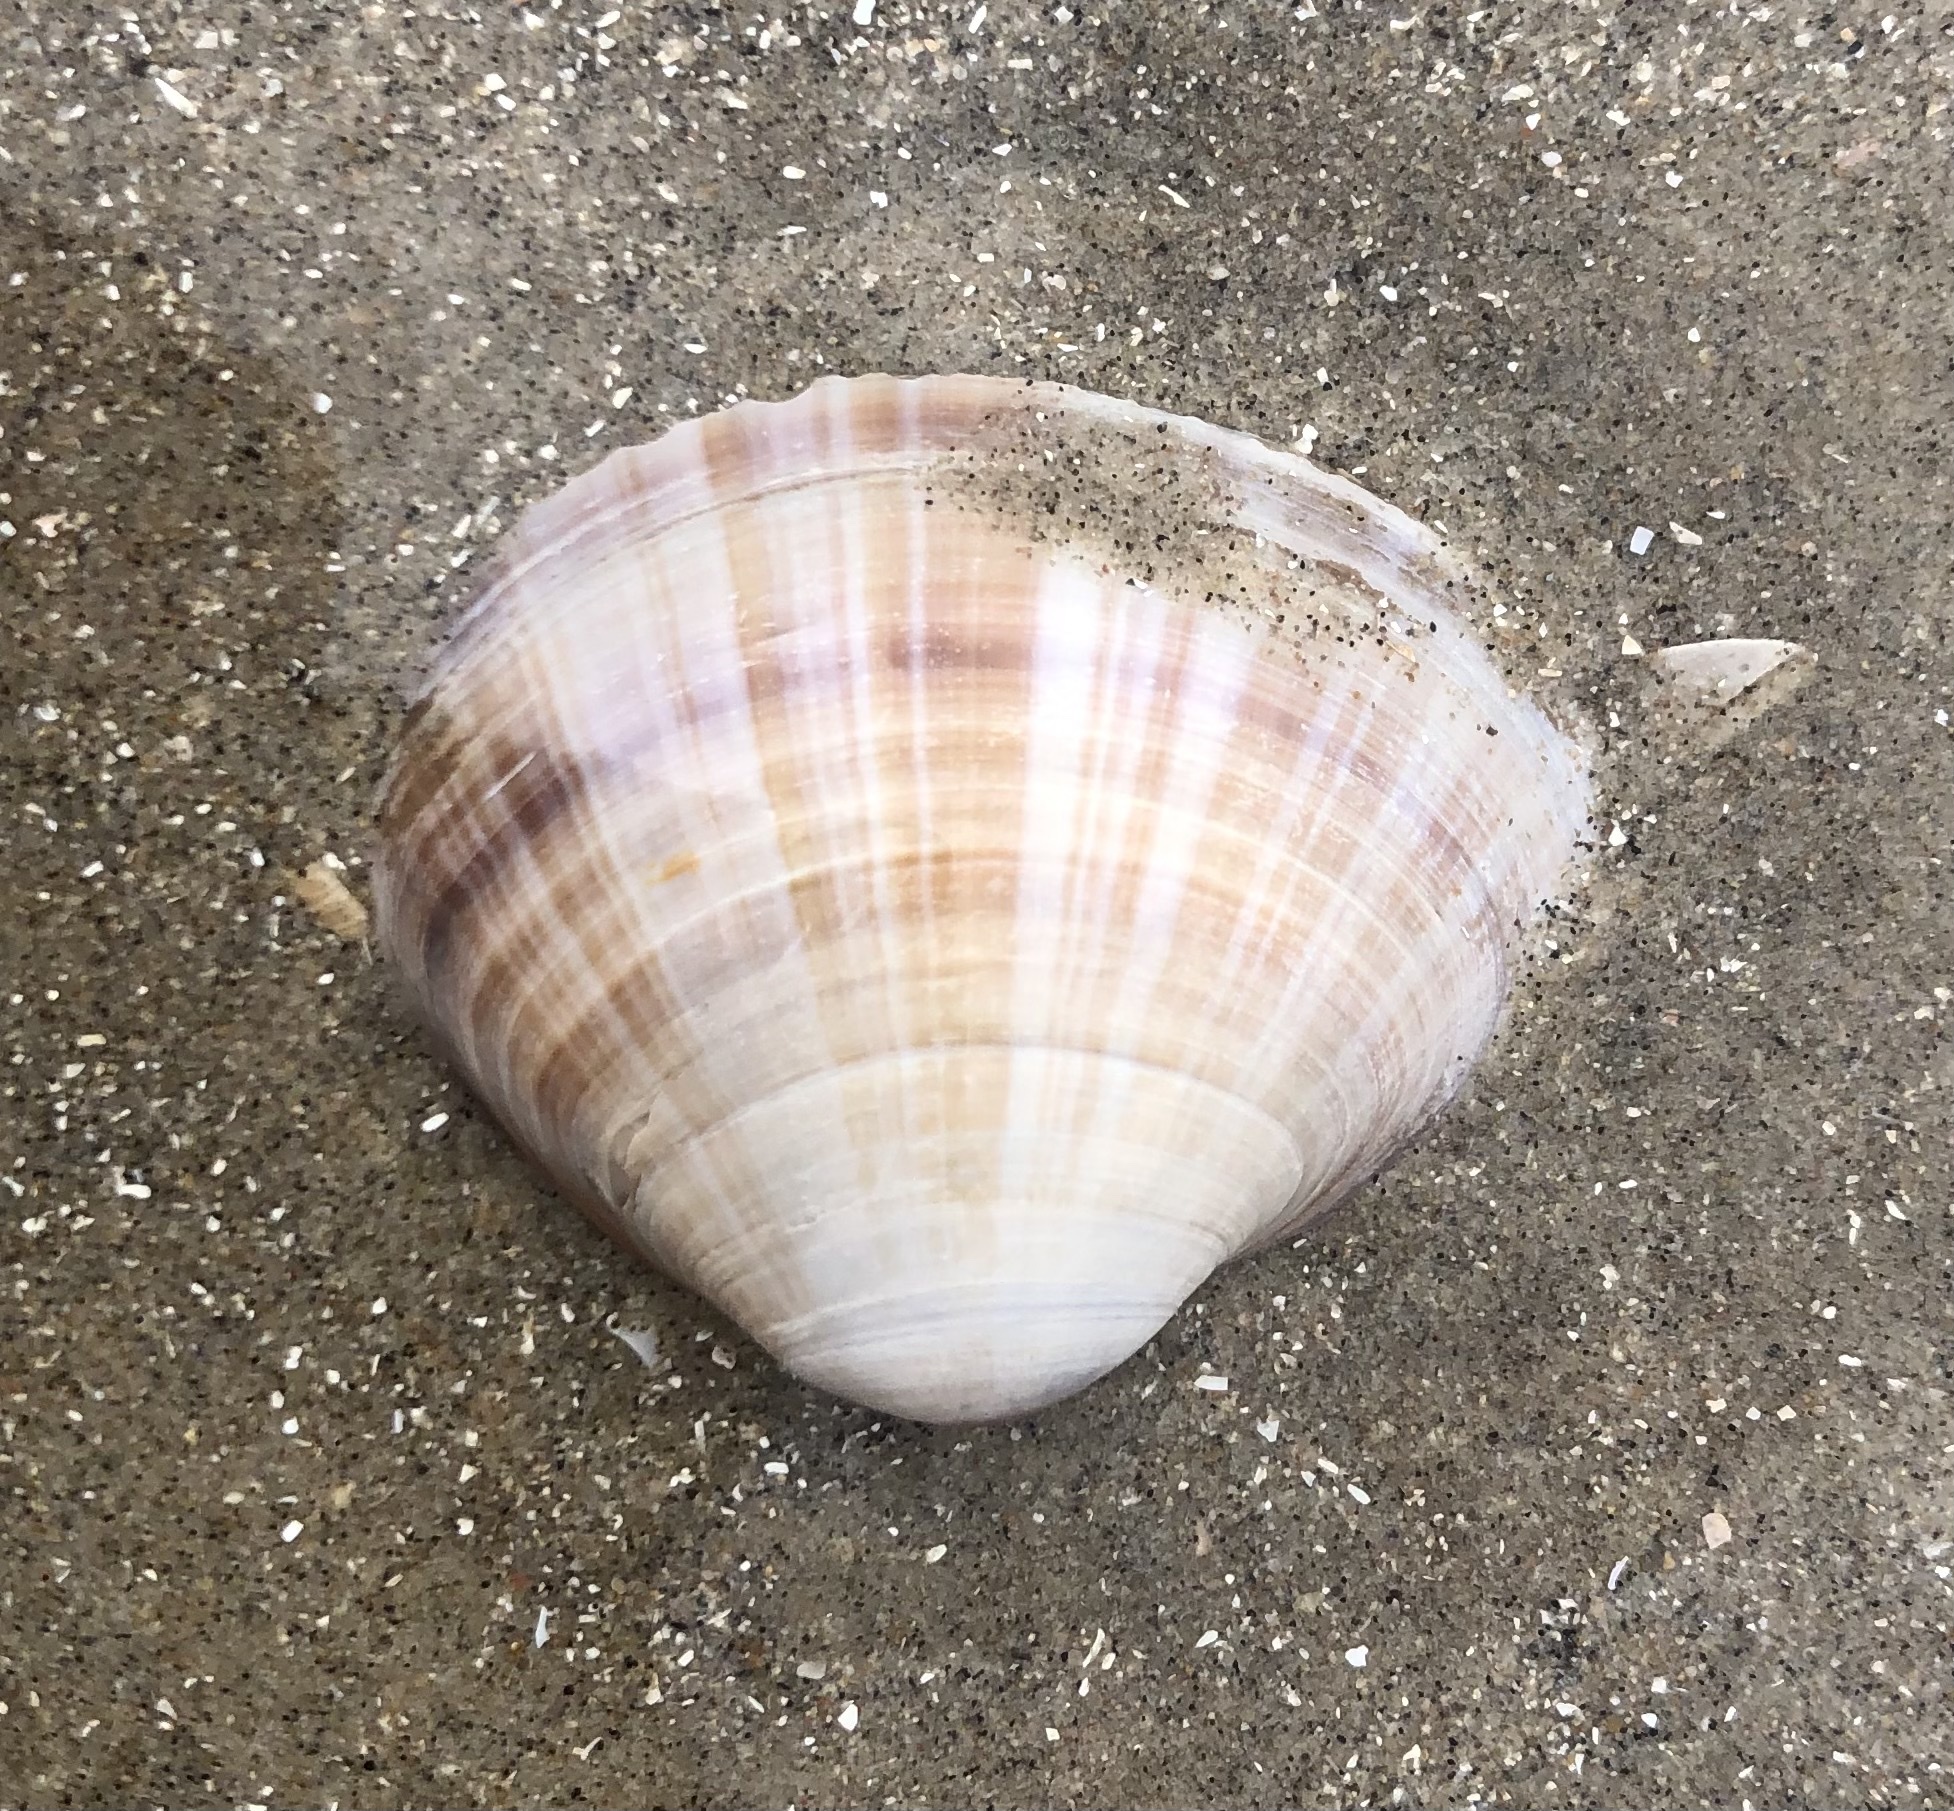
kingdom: Animalia
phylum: Mollusca
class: Bivalvia
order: Venerida
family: Mactridae
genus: Mactra
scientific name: Mactra stultorum
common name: Rayed trough shell
